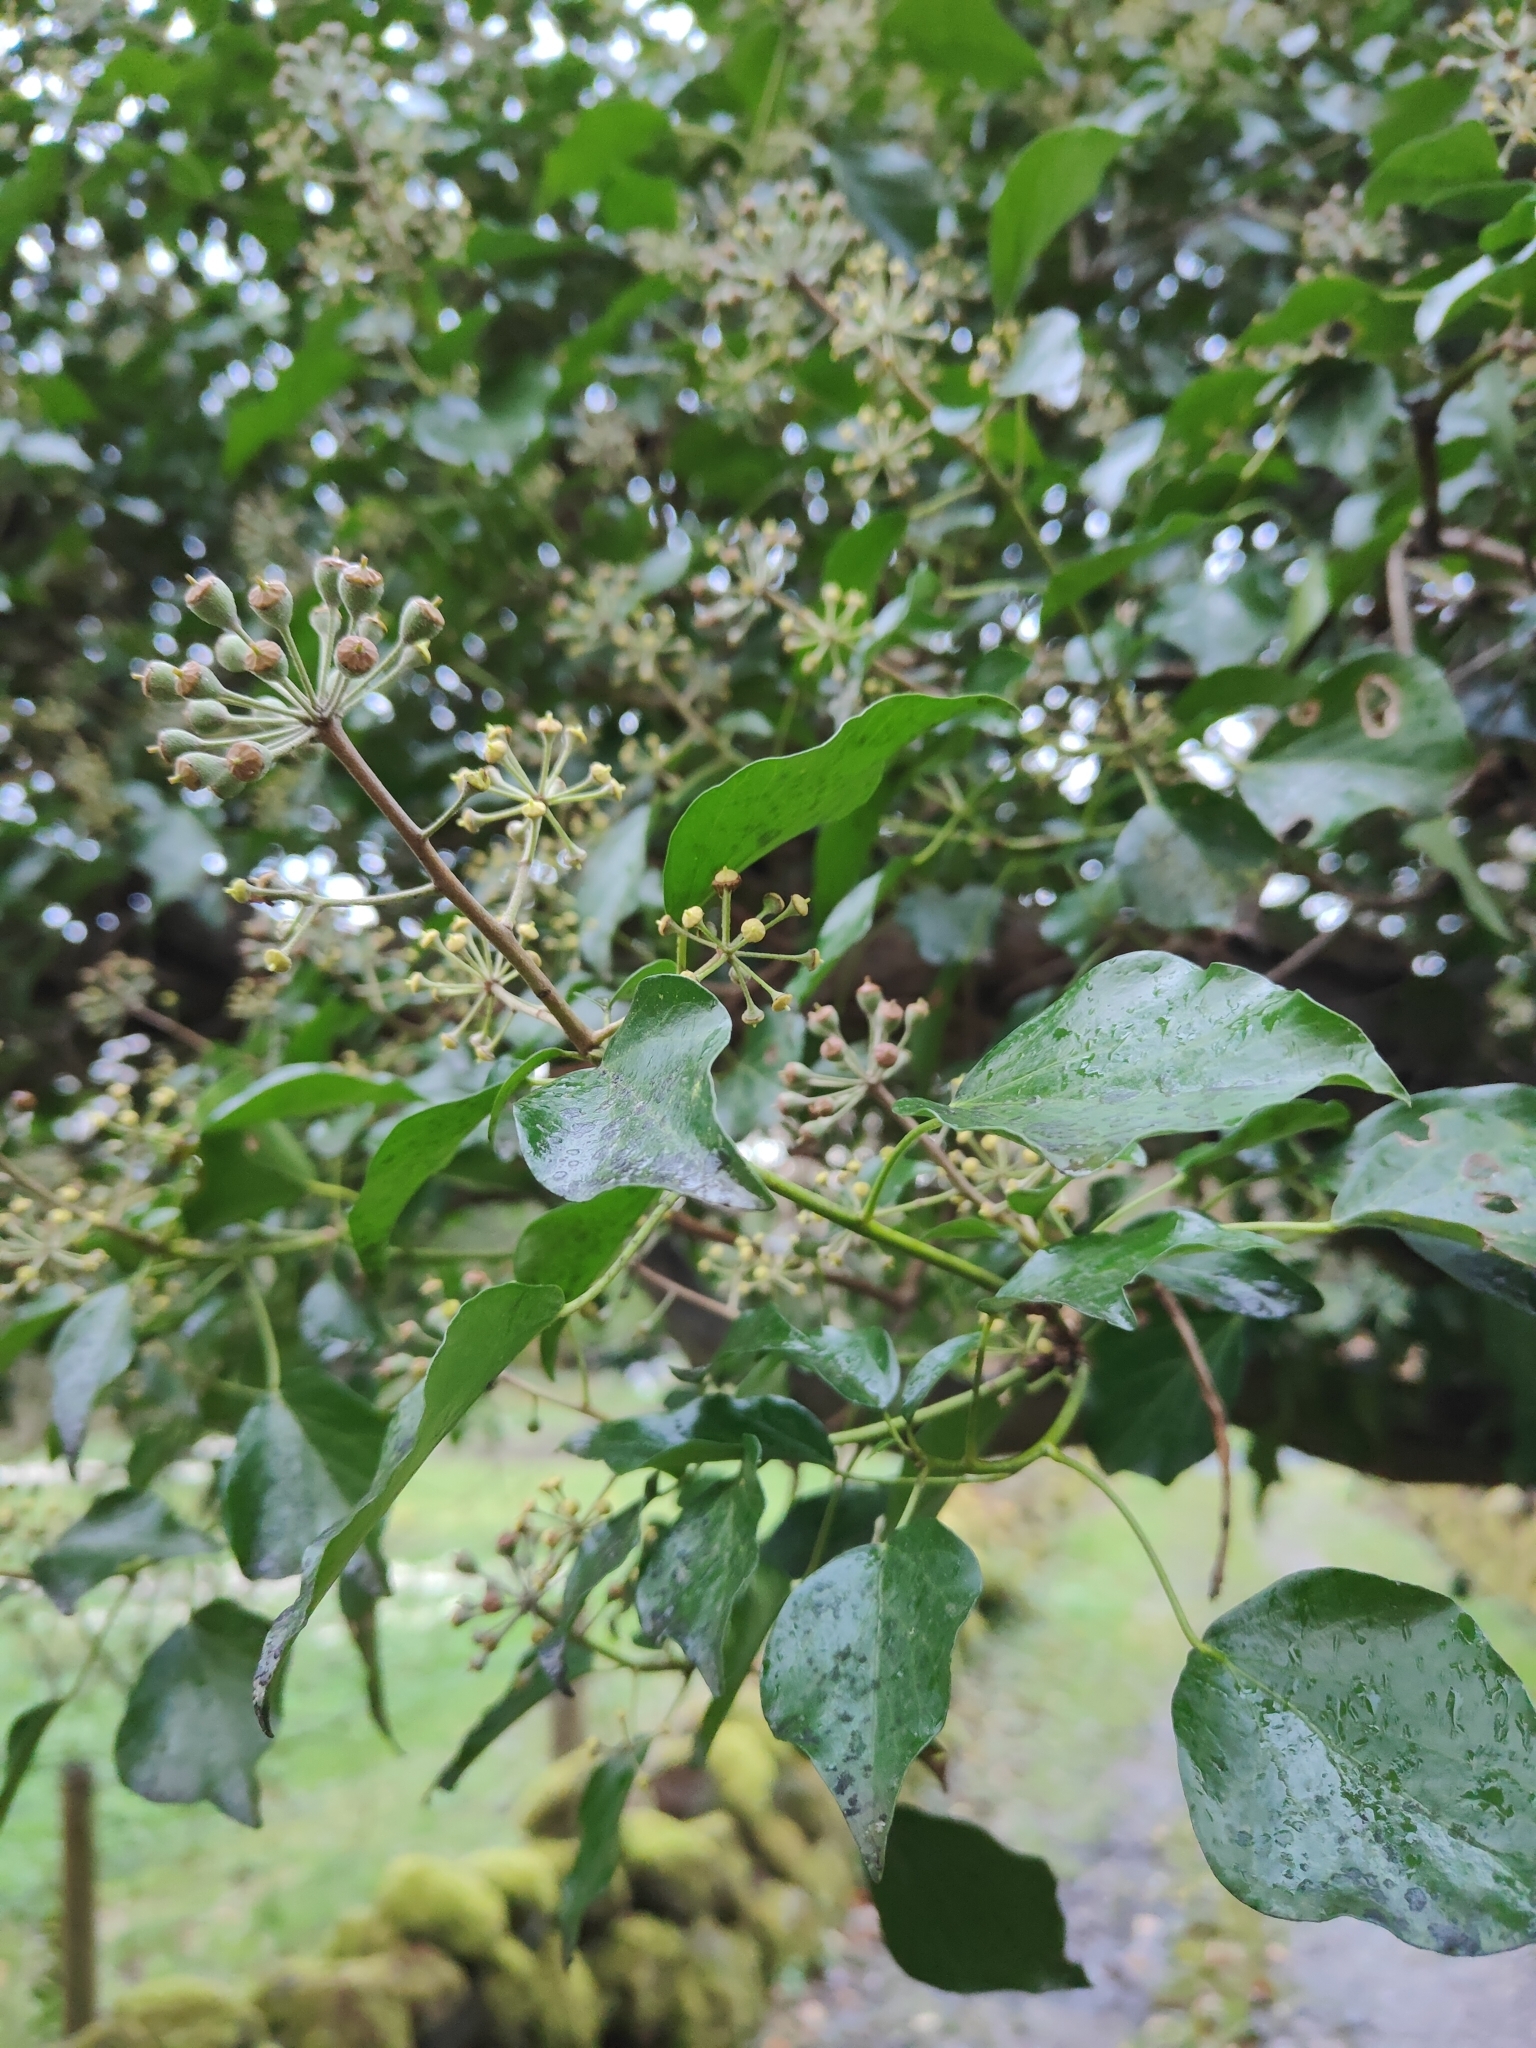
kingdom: Plantae
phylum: Tracheophyta
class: Magnoliopsida
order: Apiales
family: Araliaceae
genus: Hedera
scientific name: Hedera helix
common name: Ivy
